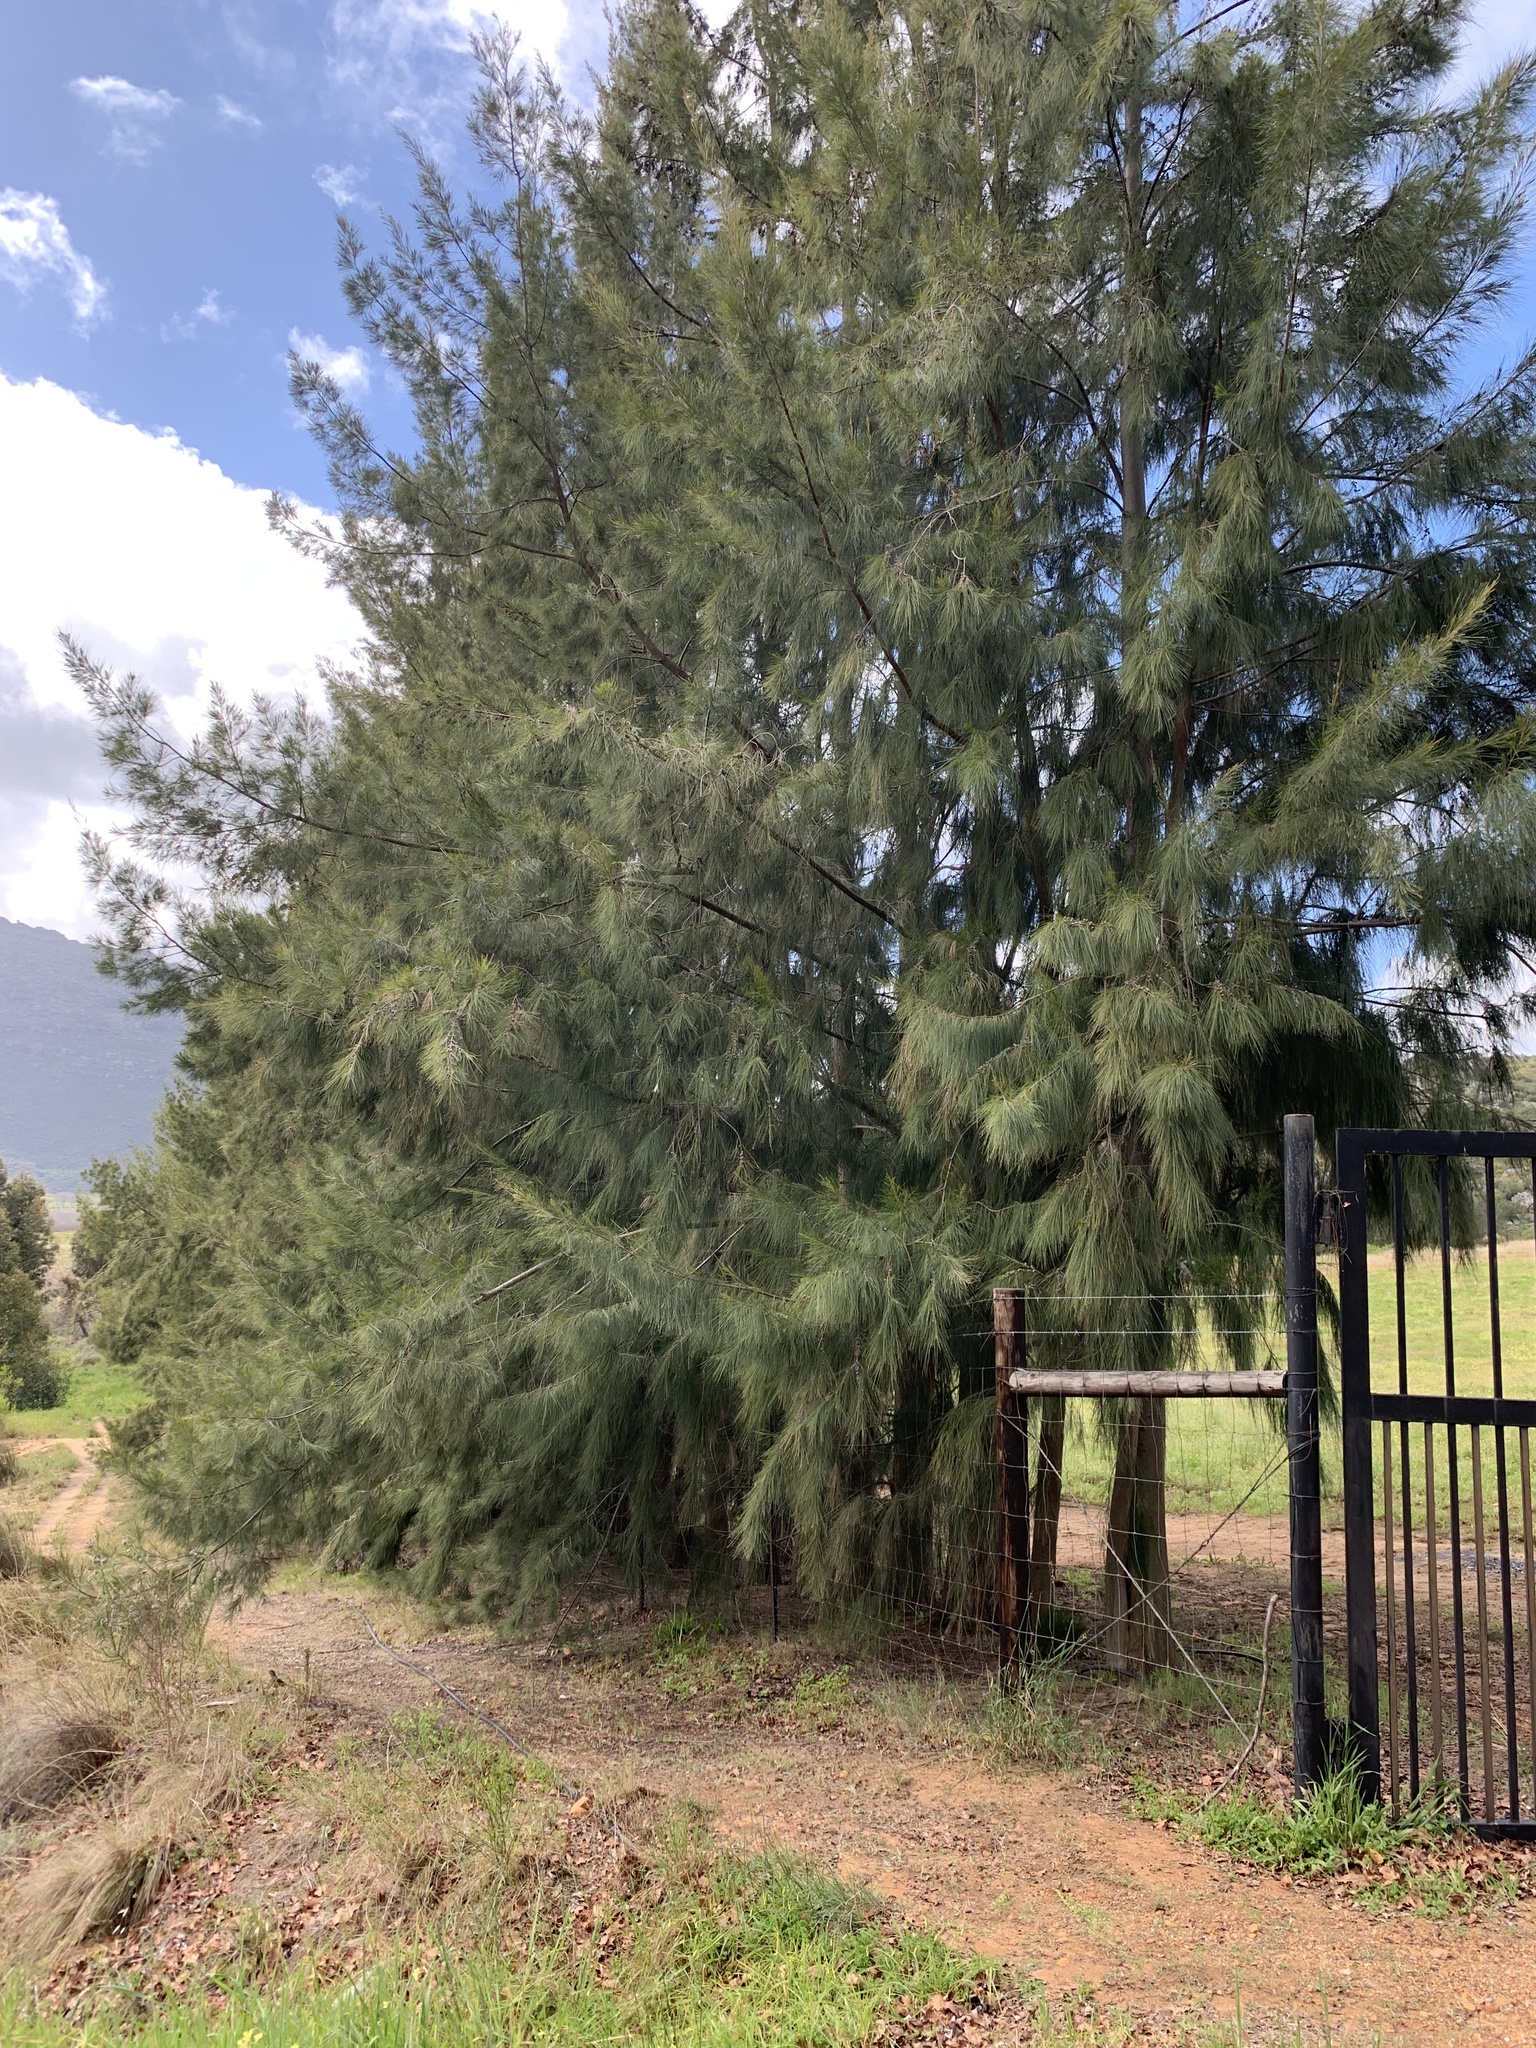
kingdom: Plantae
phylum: Tracheophyta
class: Magnoliopsida
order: Fagales
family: Casuarinaceae
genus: Casuarina
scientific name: Casuarina cunninghamiana
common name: River sheoak
